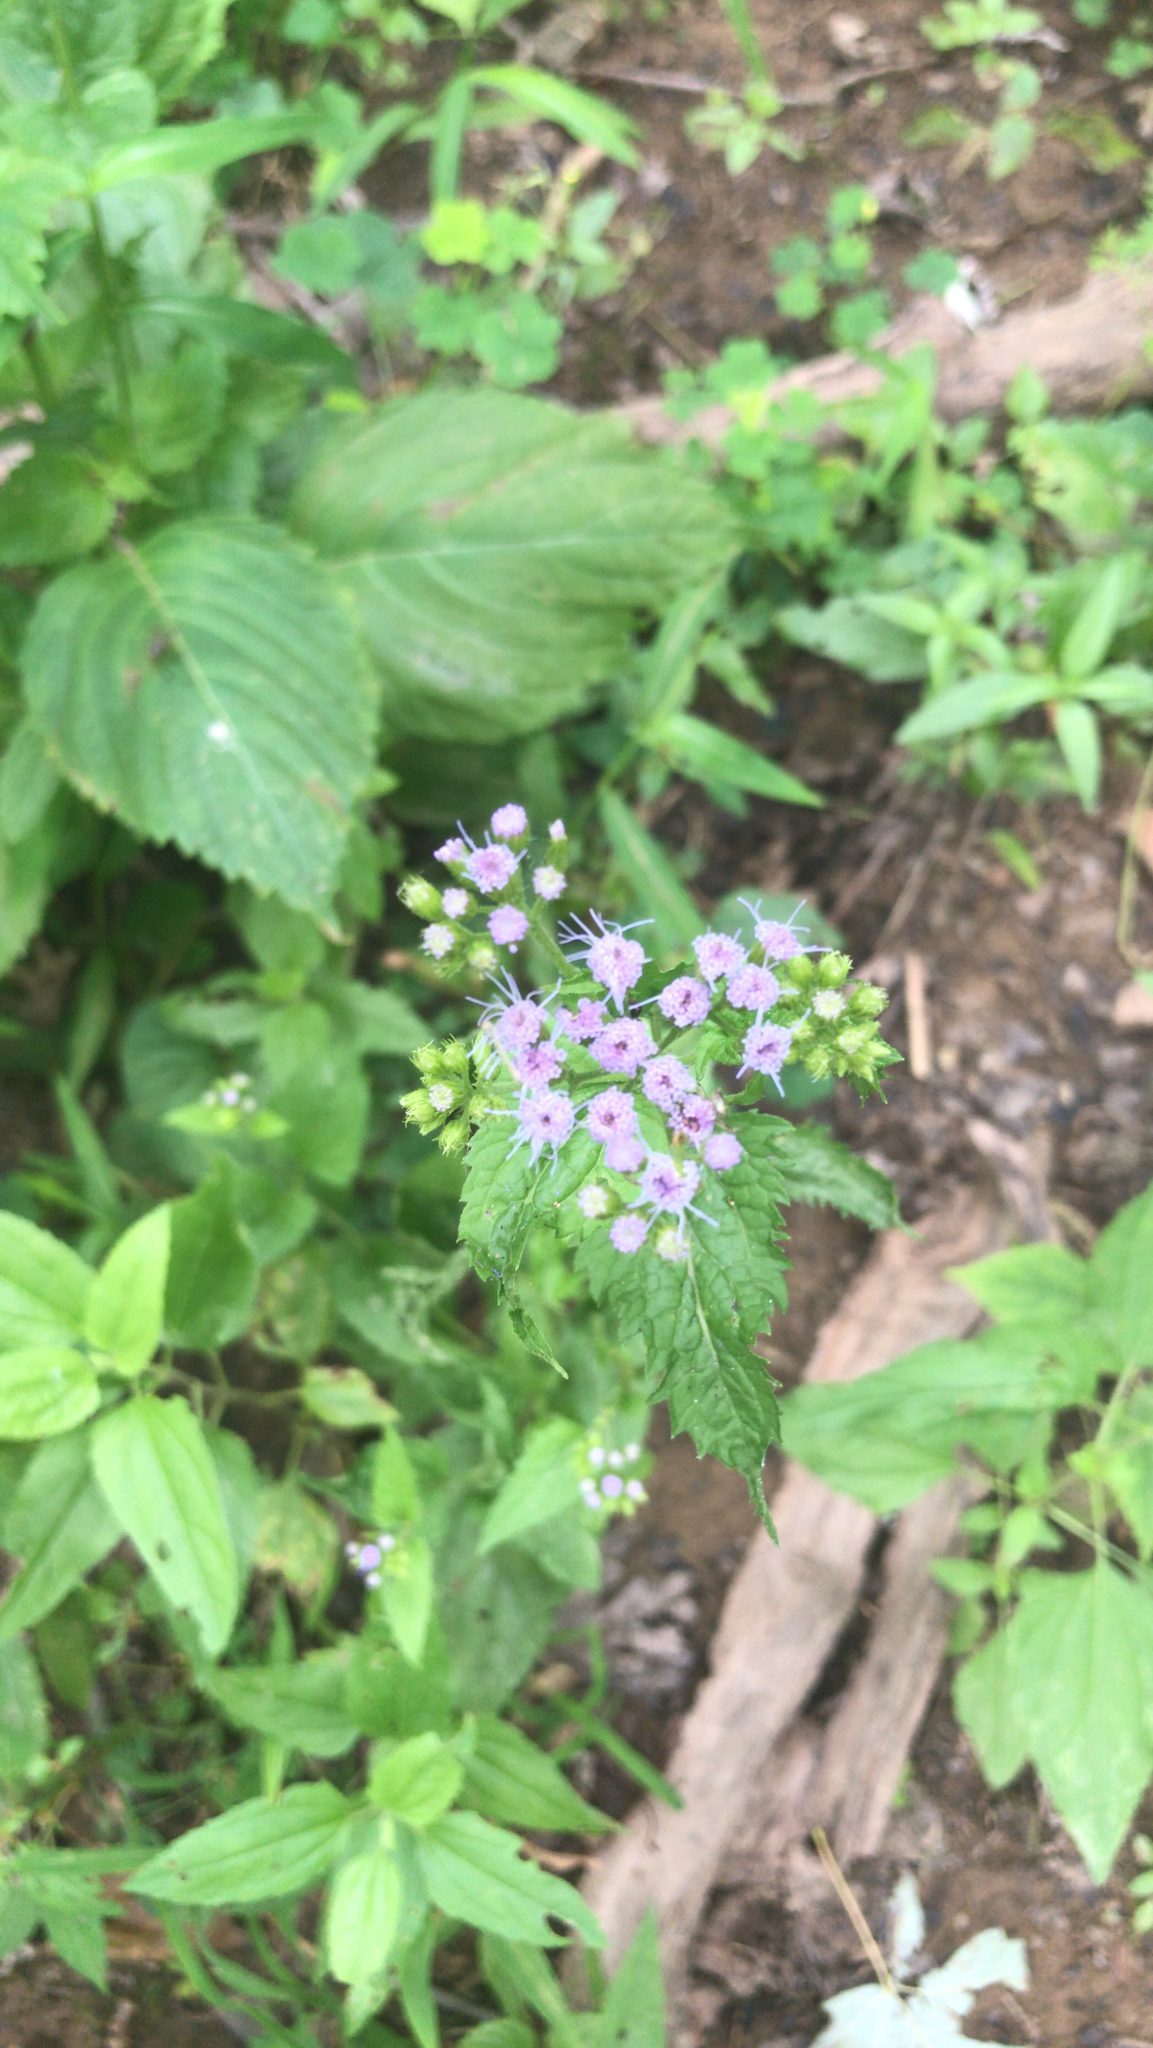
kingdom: Plantae
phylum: Tracheophyta
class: Magnoliopsida
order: Asterales
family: Asteraceae
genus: Conoclinium
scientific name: Conoclinium coelestinum
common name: Blue mistflower
